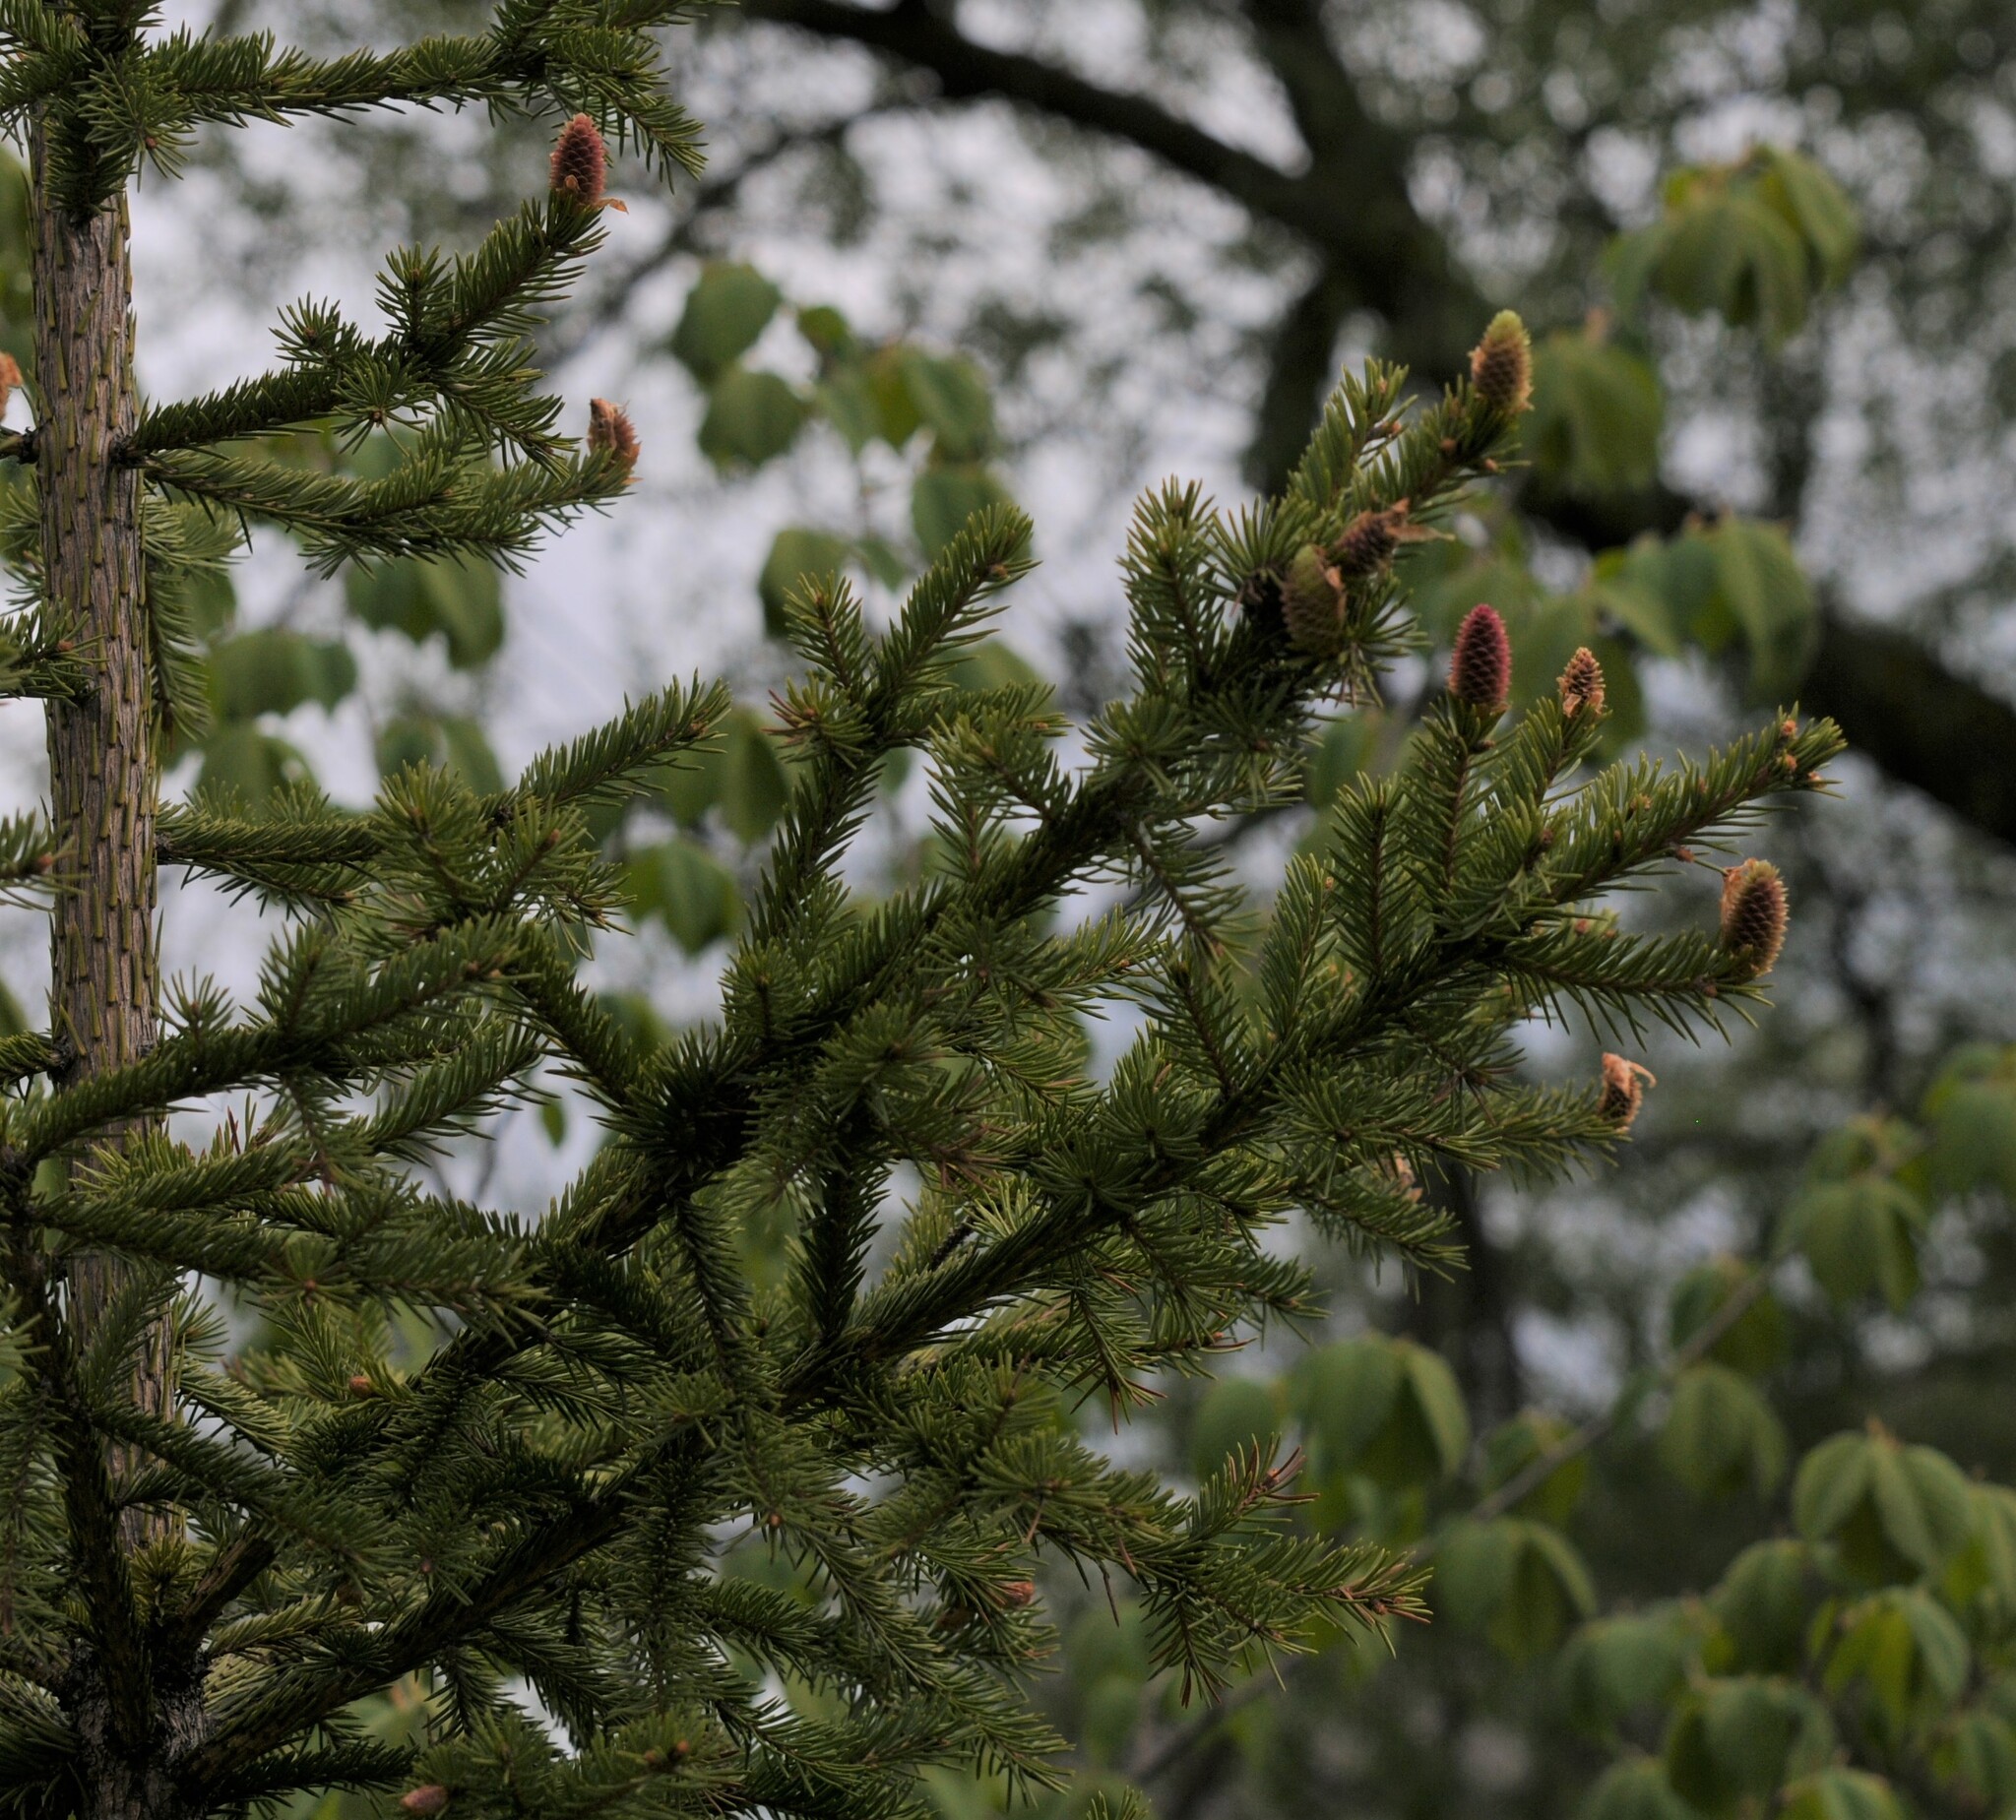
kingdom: Plantae
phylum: Tracheophyta
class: Pinopsida
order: Pinales
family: Pinaceae
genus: Picea
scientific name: Picea abies
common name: Norway spruce
